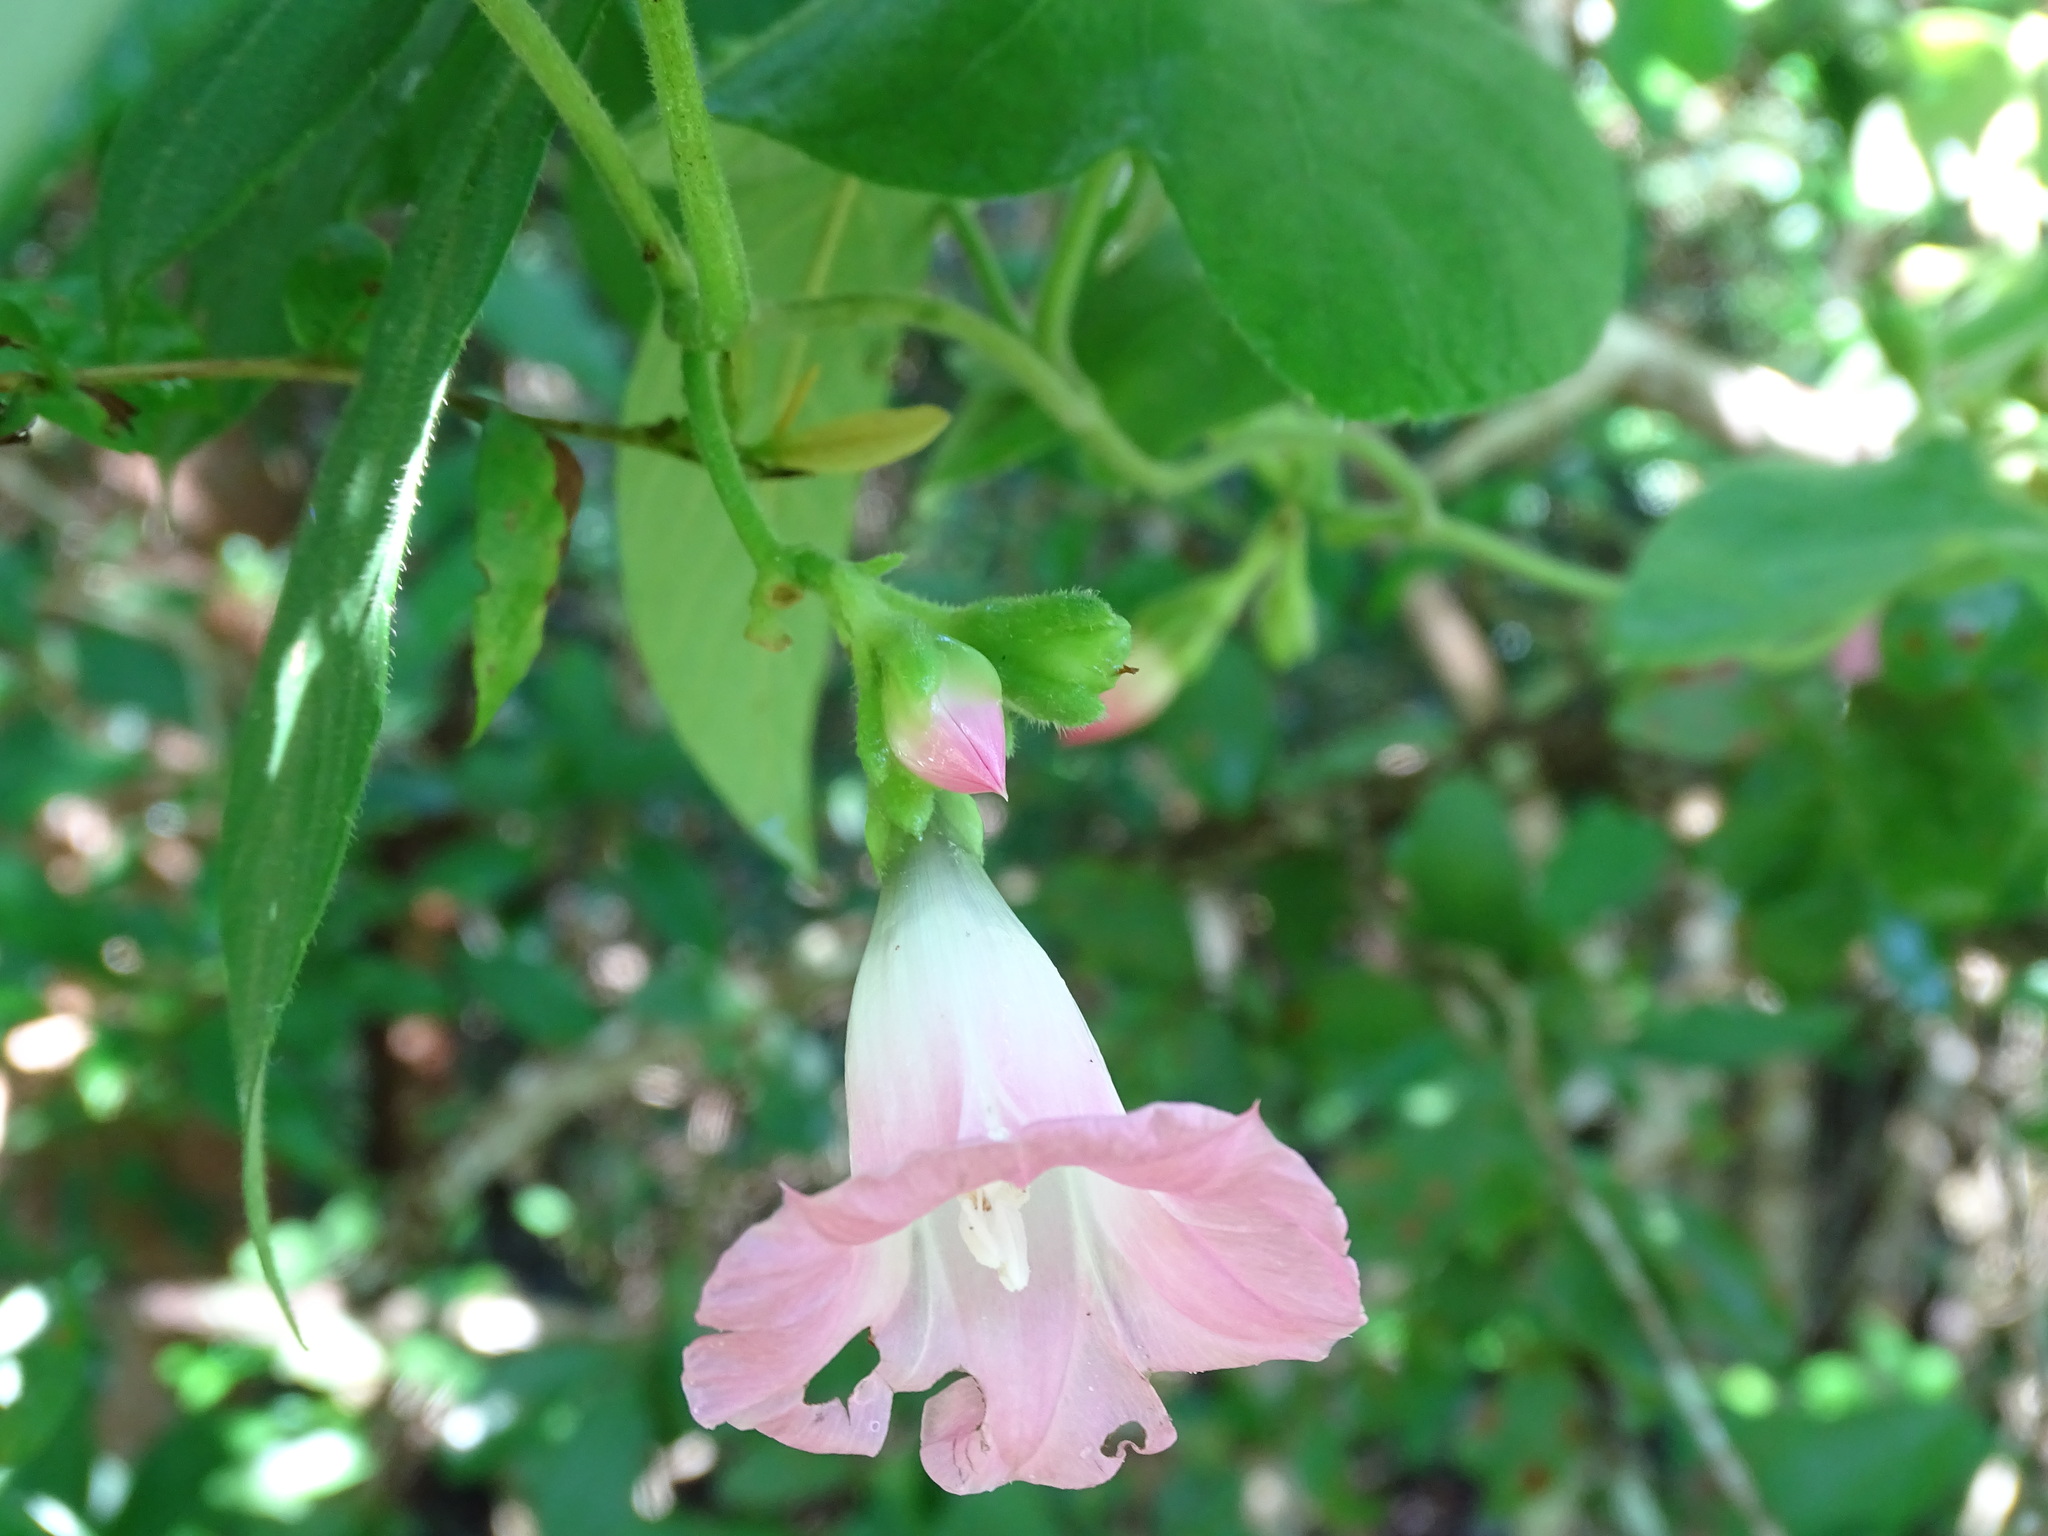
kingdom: Plantae
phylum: Tracheophyta
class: Magnoliopsida
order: Solanales
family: Convolvulaceae
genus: Ipomoea
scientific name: Ipomoea peteri
